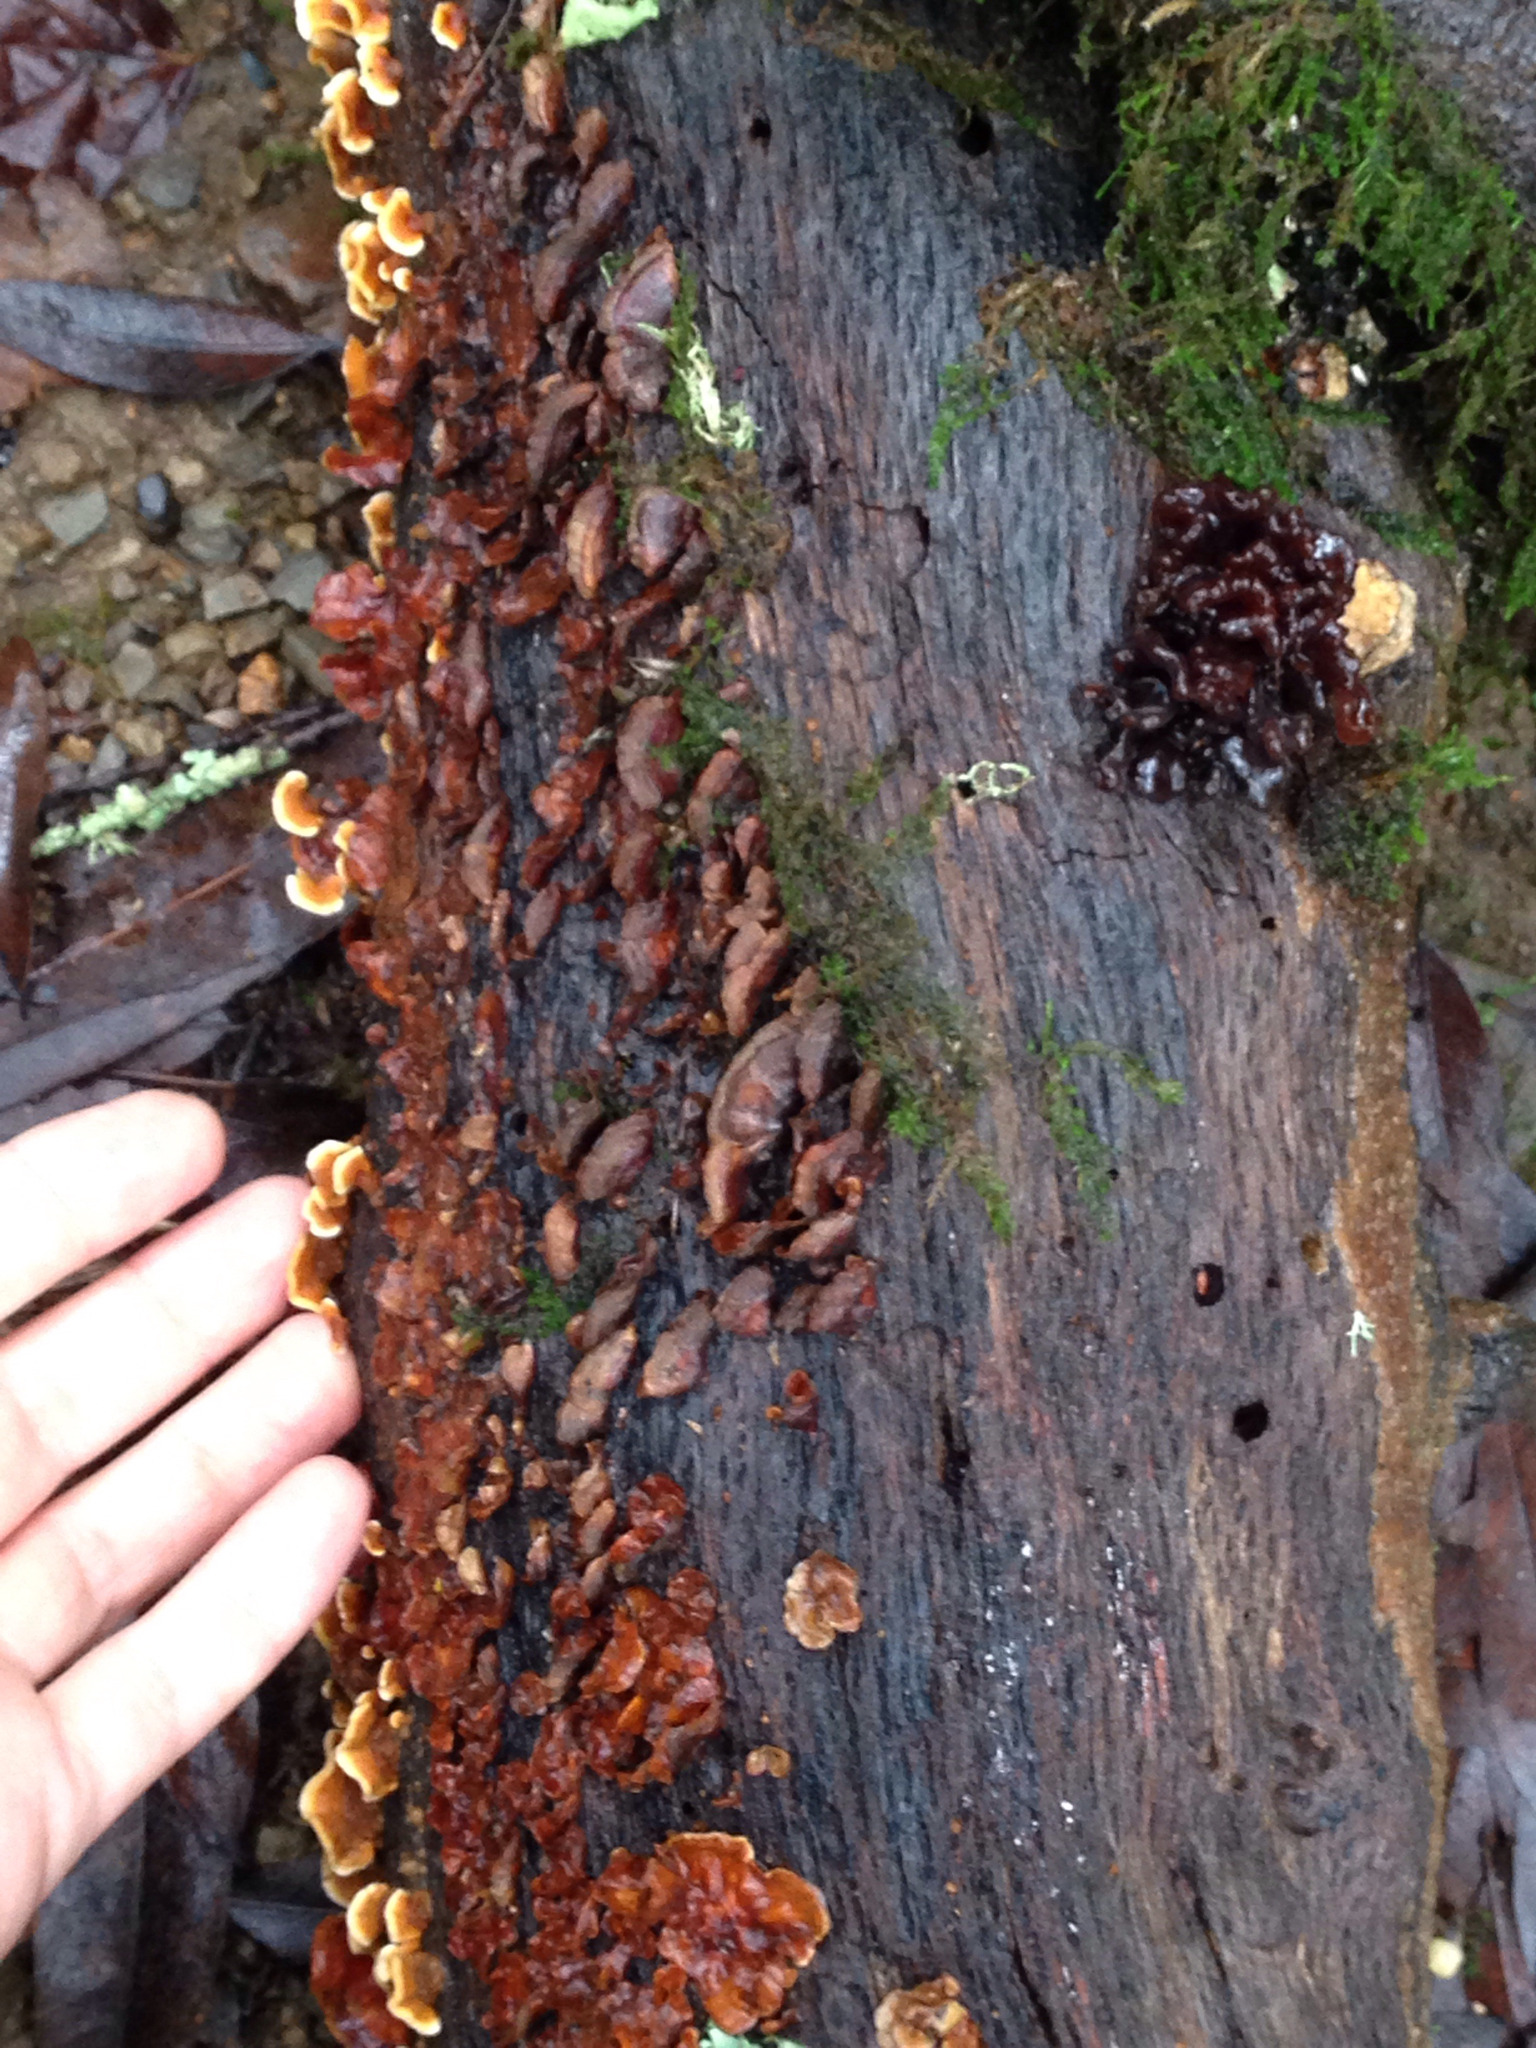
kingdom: Fungi
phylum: Basidiomycota
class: Tremellomycetes
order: Tremellales
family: Tremellaceae
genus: Phaeotremella
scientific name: Phaeotremella foliacea
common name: Leafy brain
